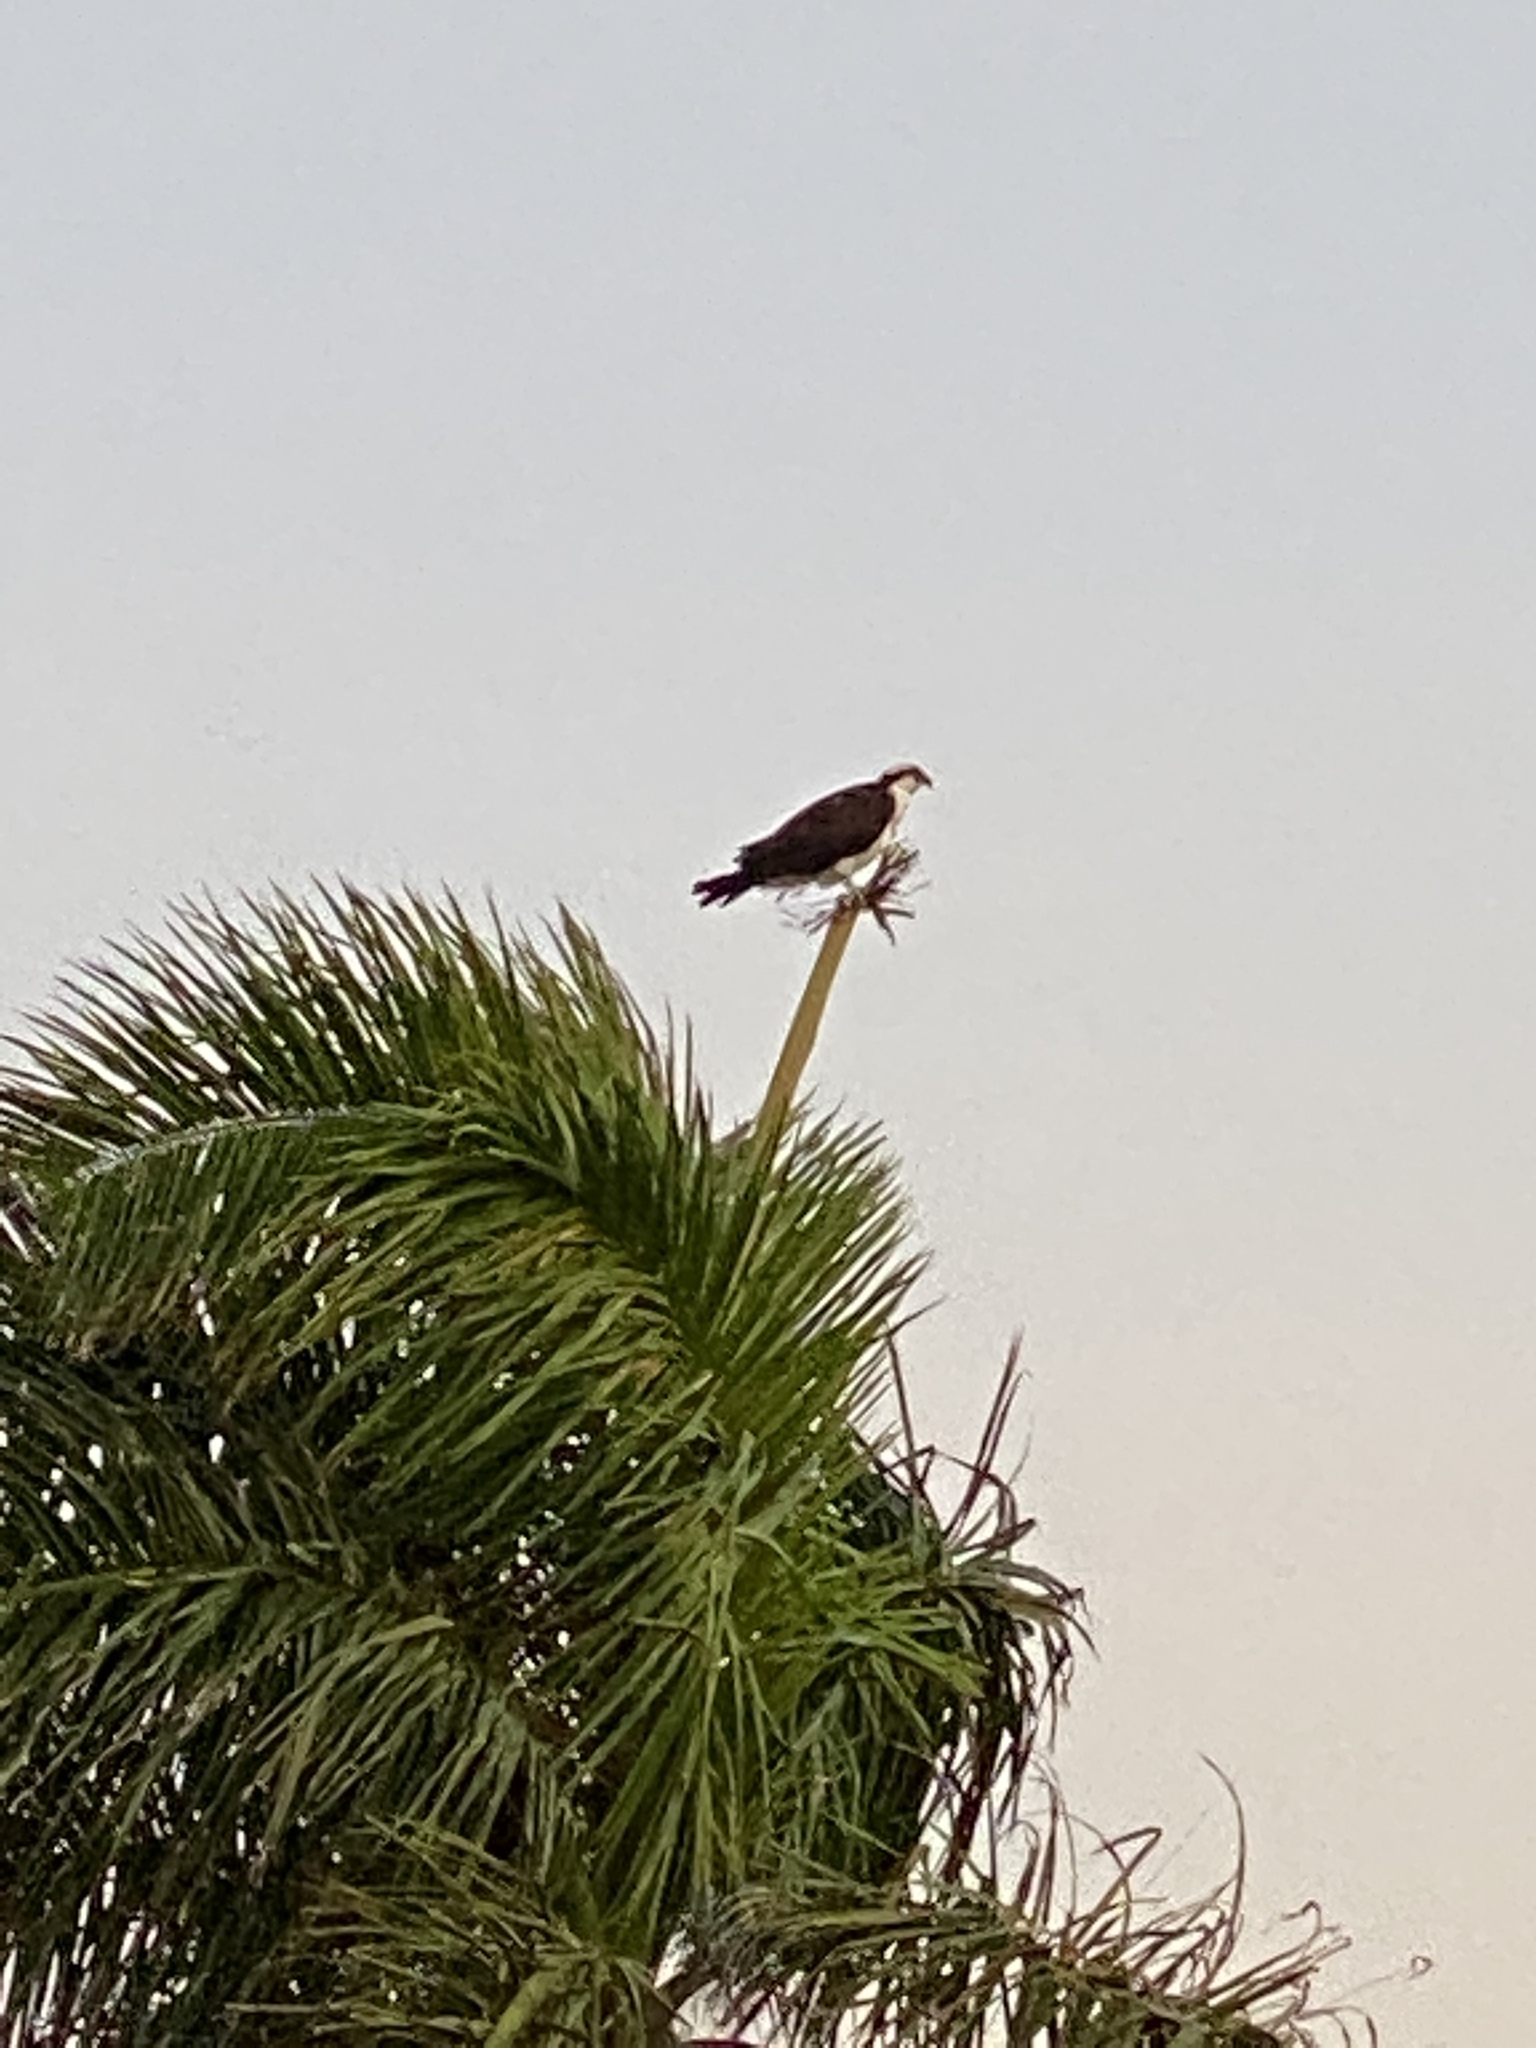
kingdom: Animalia
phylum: Chordata
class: Aves
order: Accipitriformes
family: Pandionidae
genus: Pandion
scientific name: Pandion haliaetus
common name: Osprey
